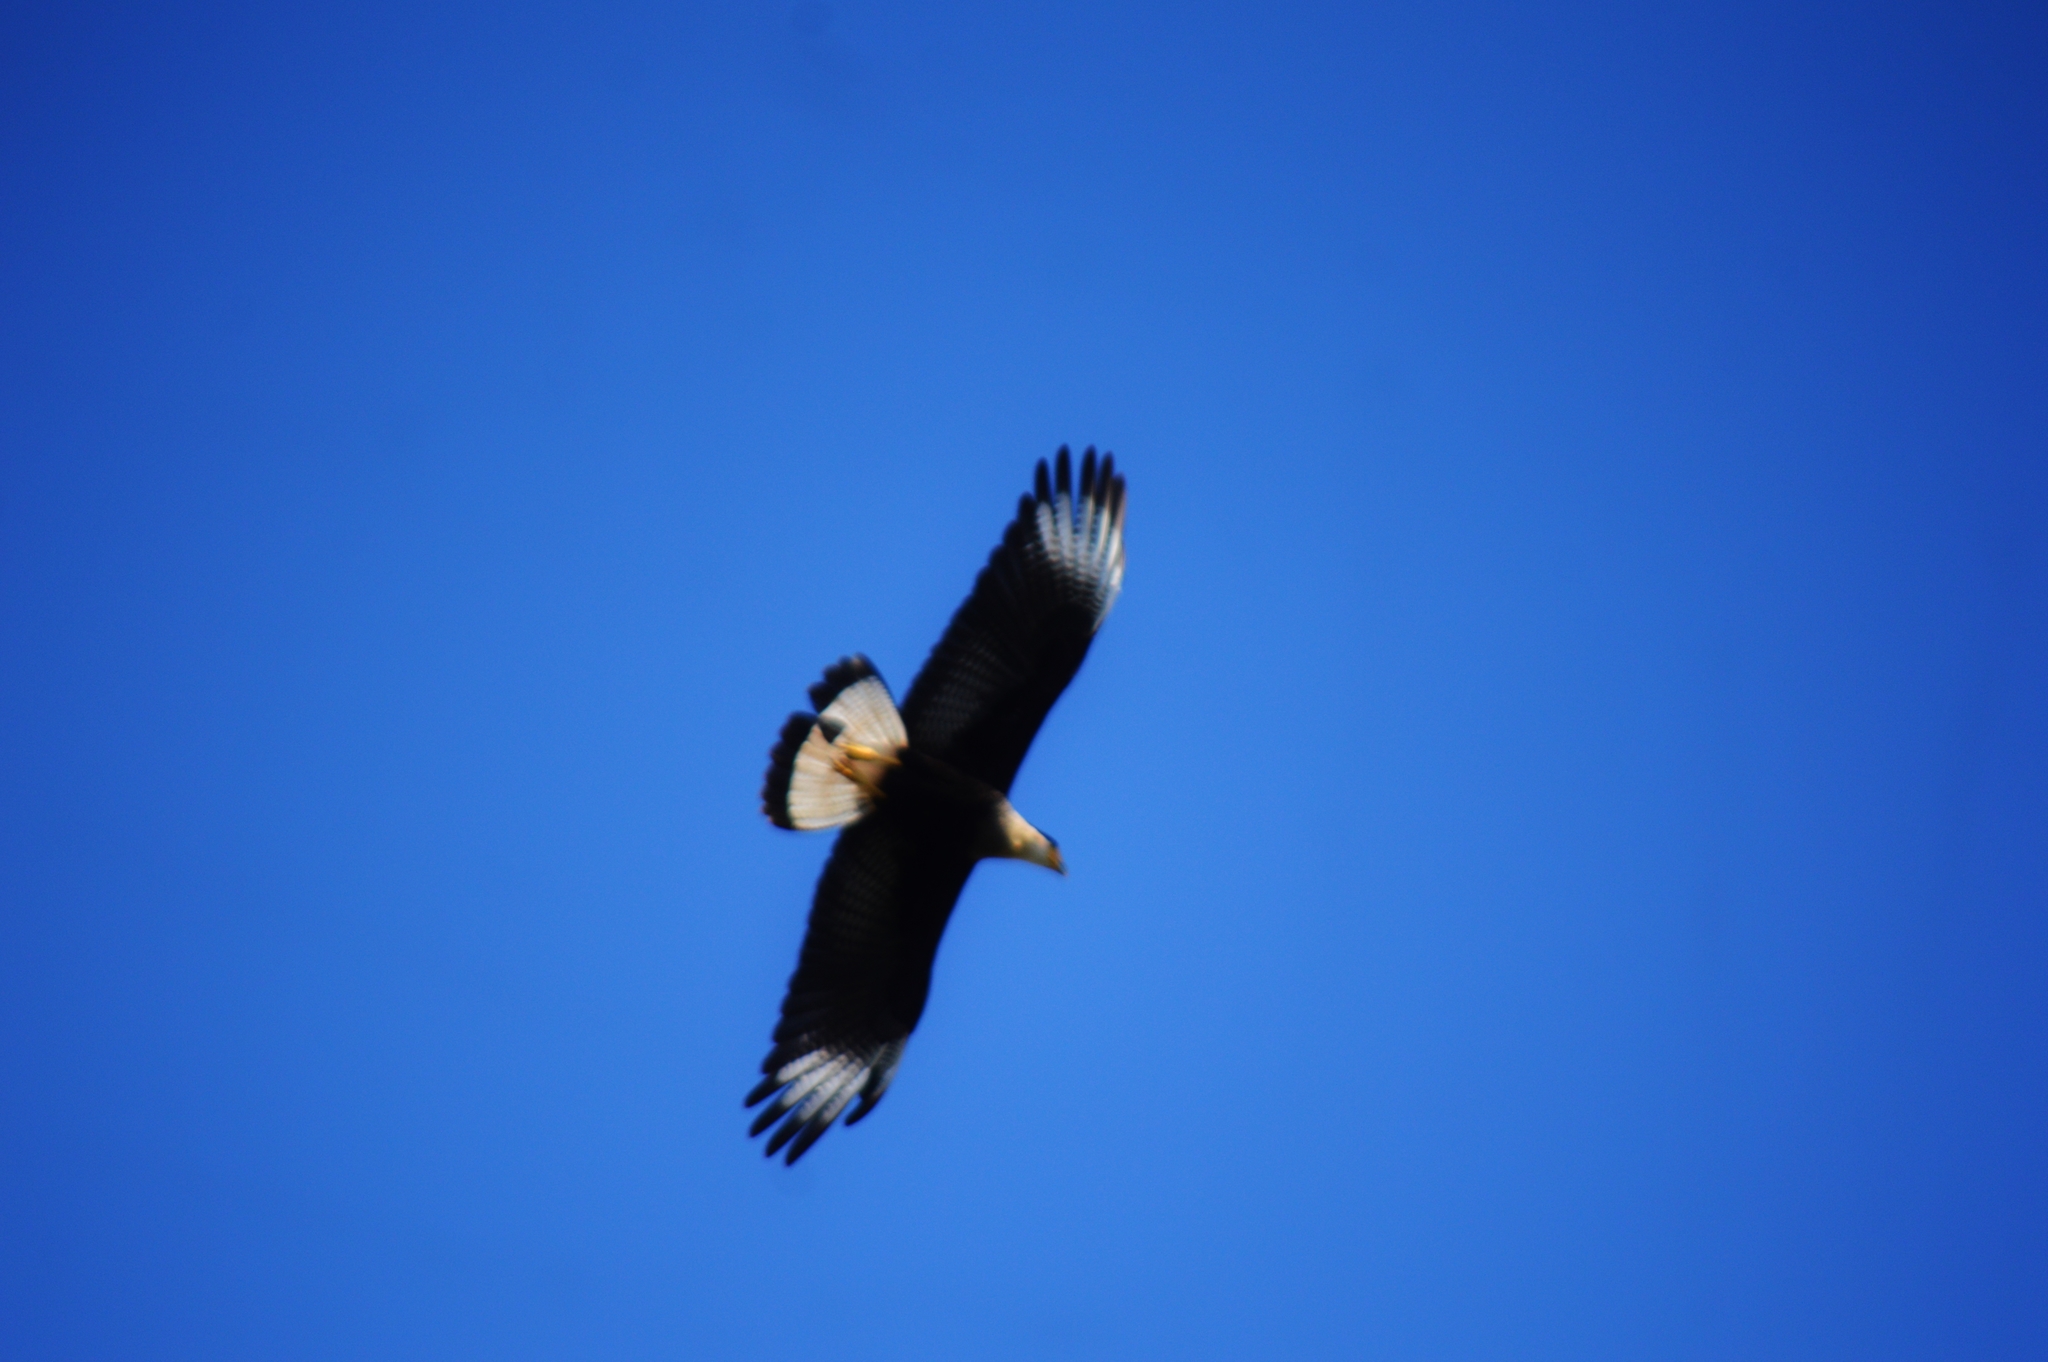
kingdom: Animalia
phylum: Chordata
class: Aves
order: Falconiformes
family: Falconidae
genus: Caracara
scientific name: Caracara plancus
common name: Southern caracara
